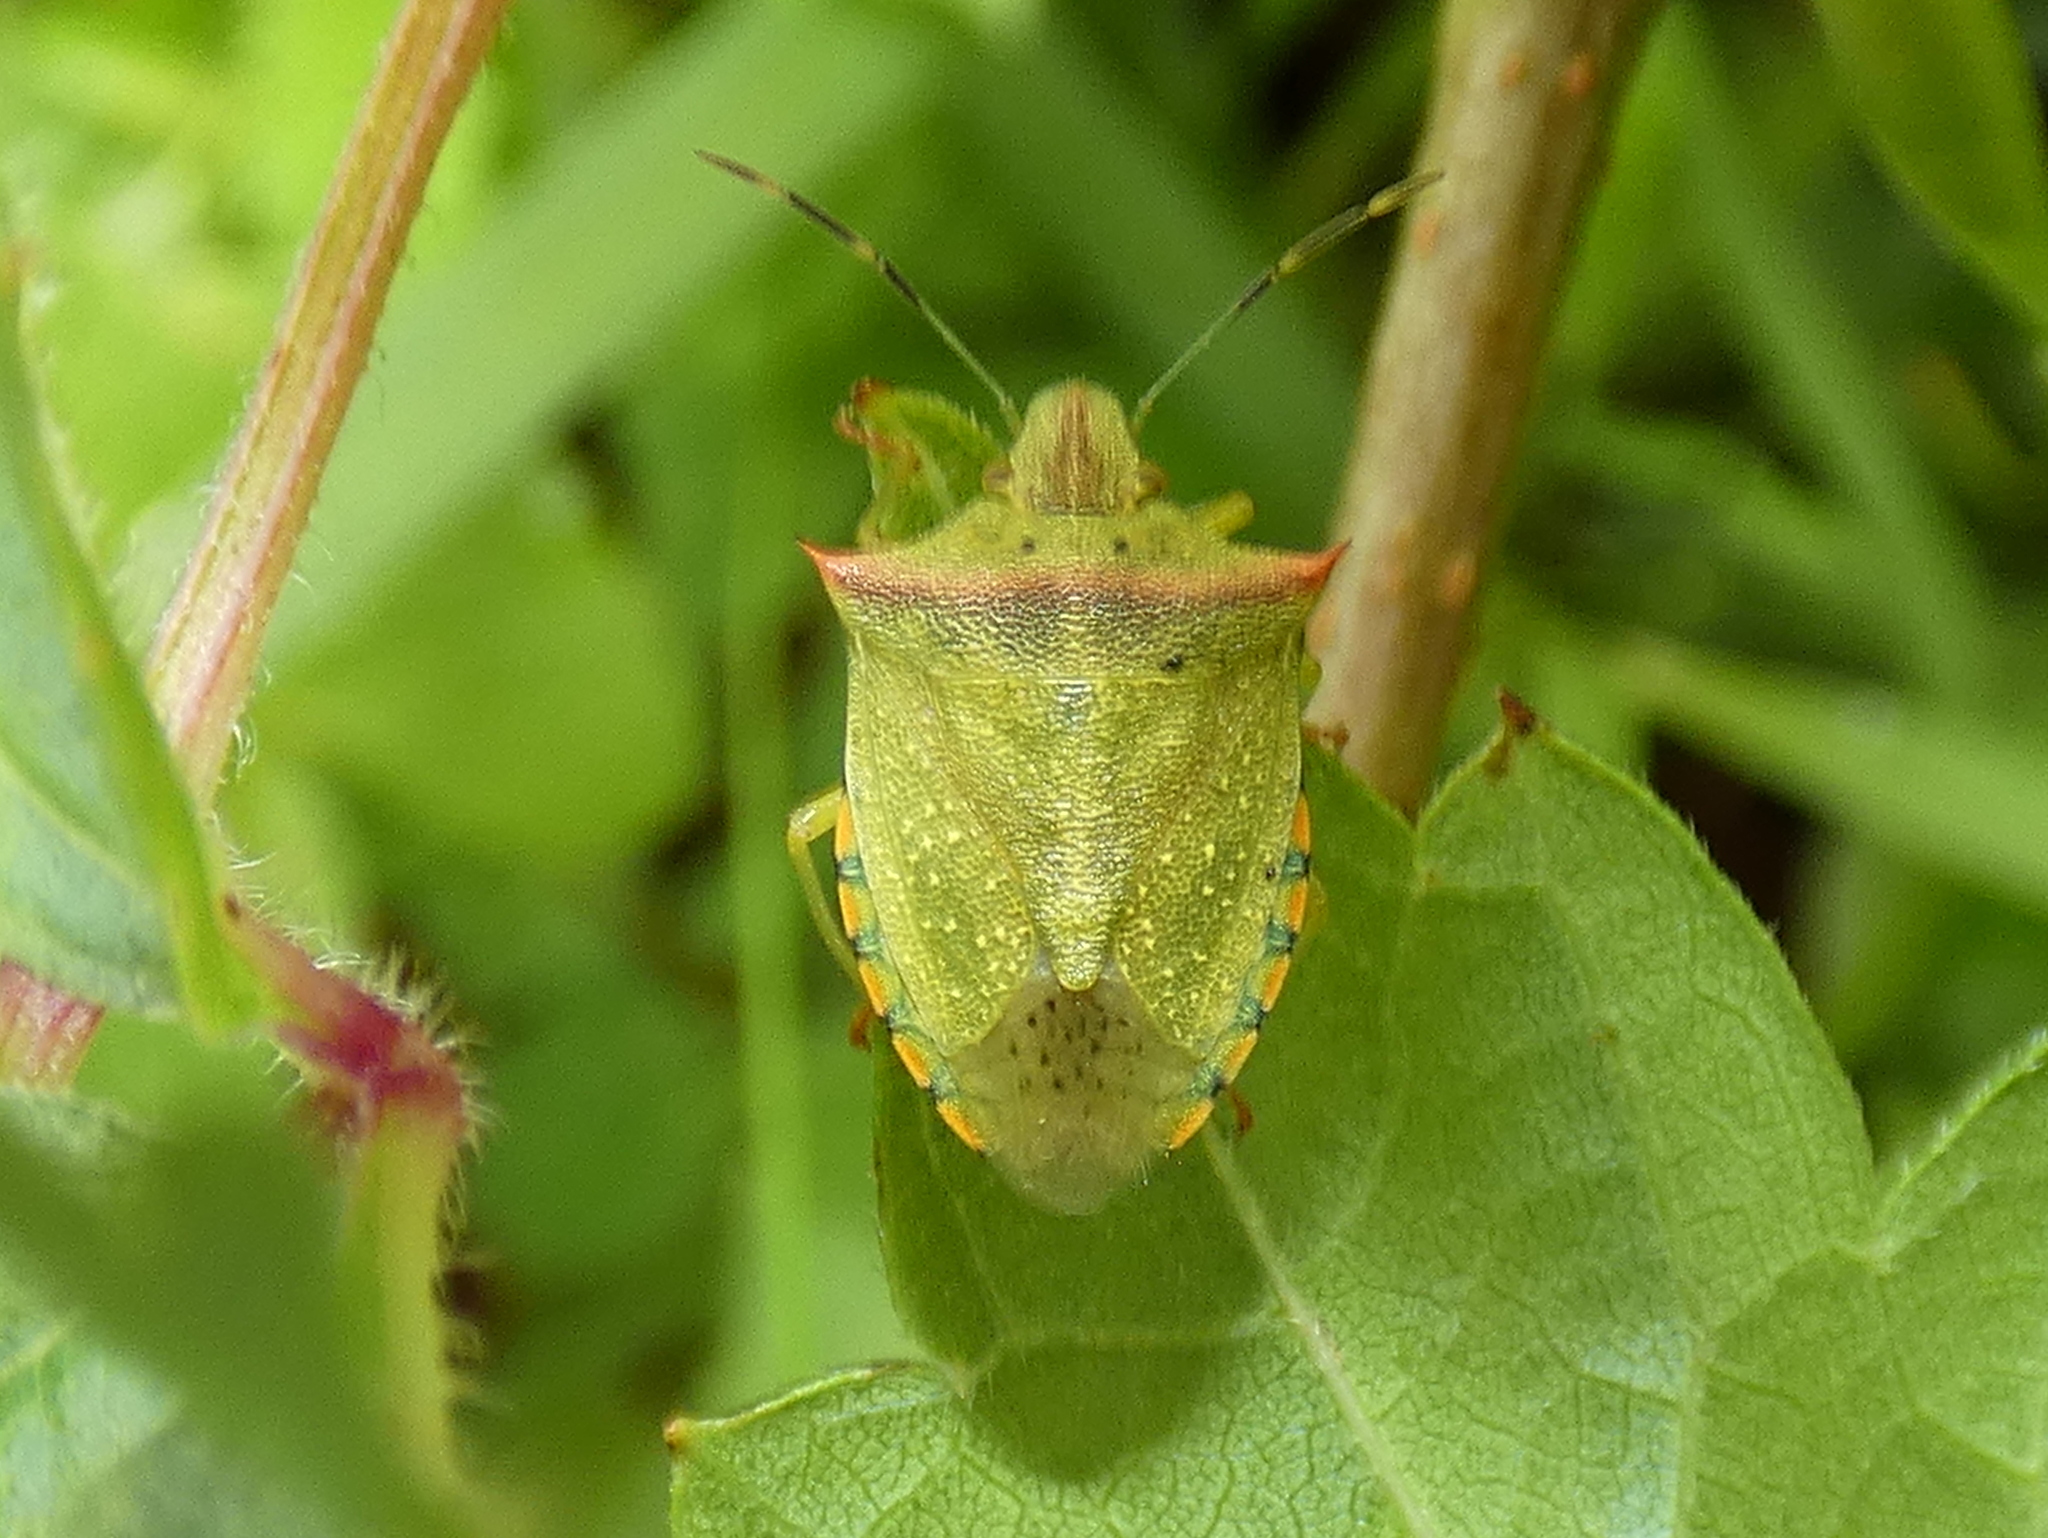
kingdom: Animalia
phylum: Arthropoda
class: Insecta
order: Hemiptera
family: Pentatomidae
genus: Thyanta
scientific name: Thyanta perditor
